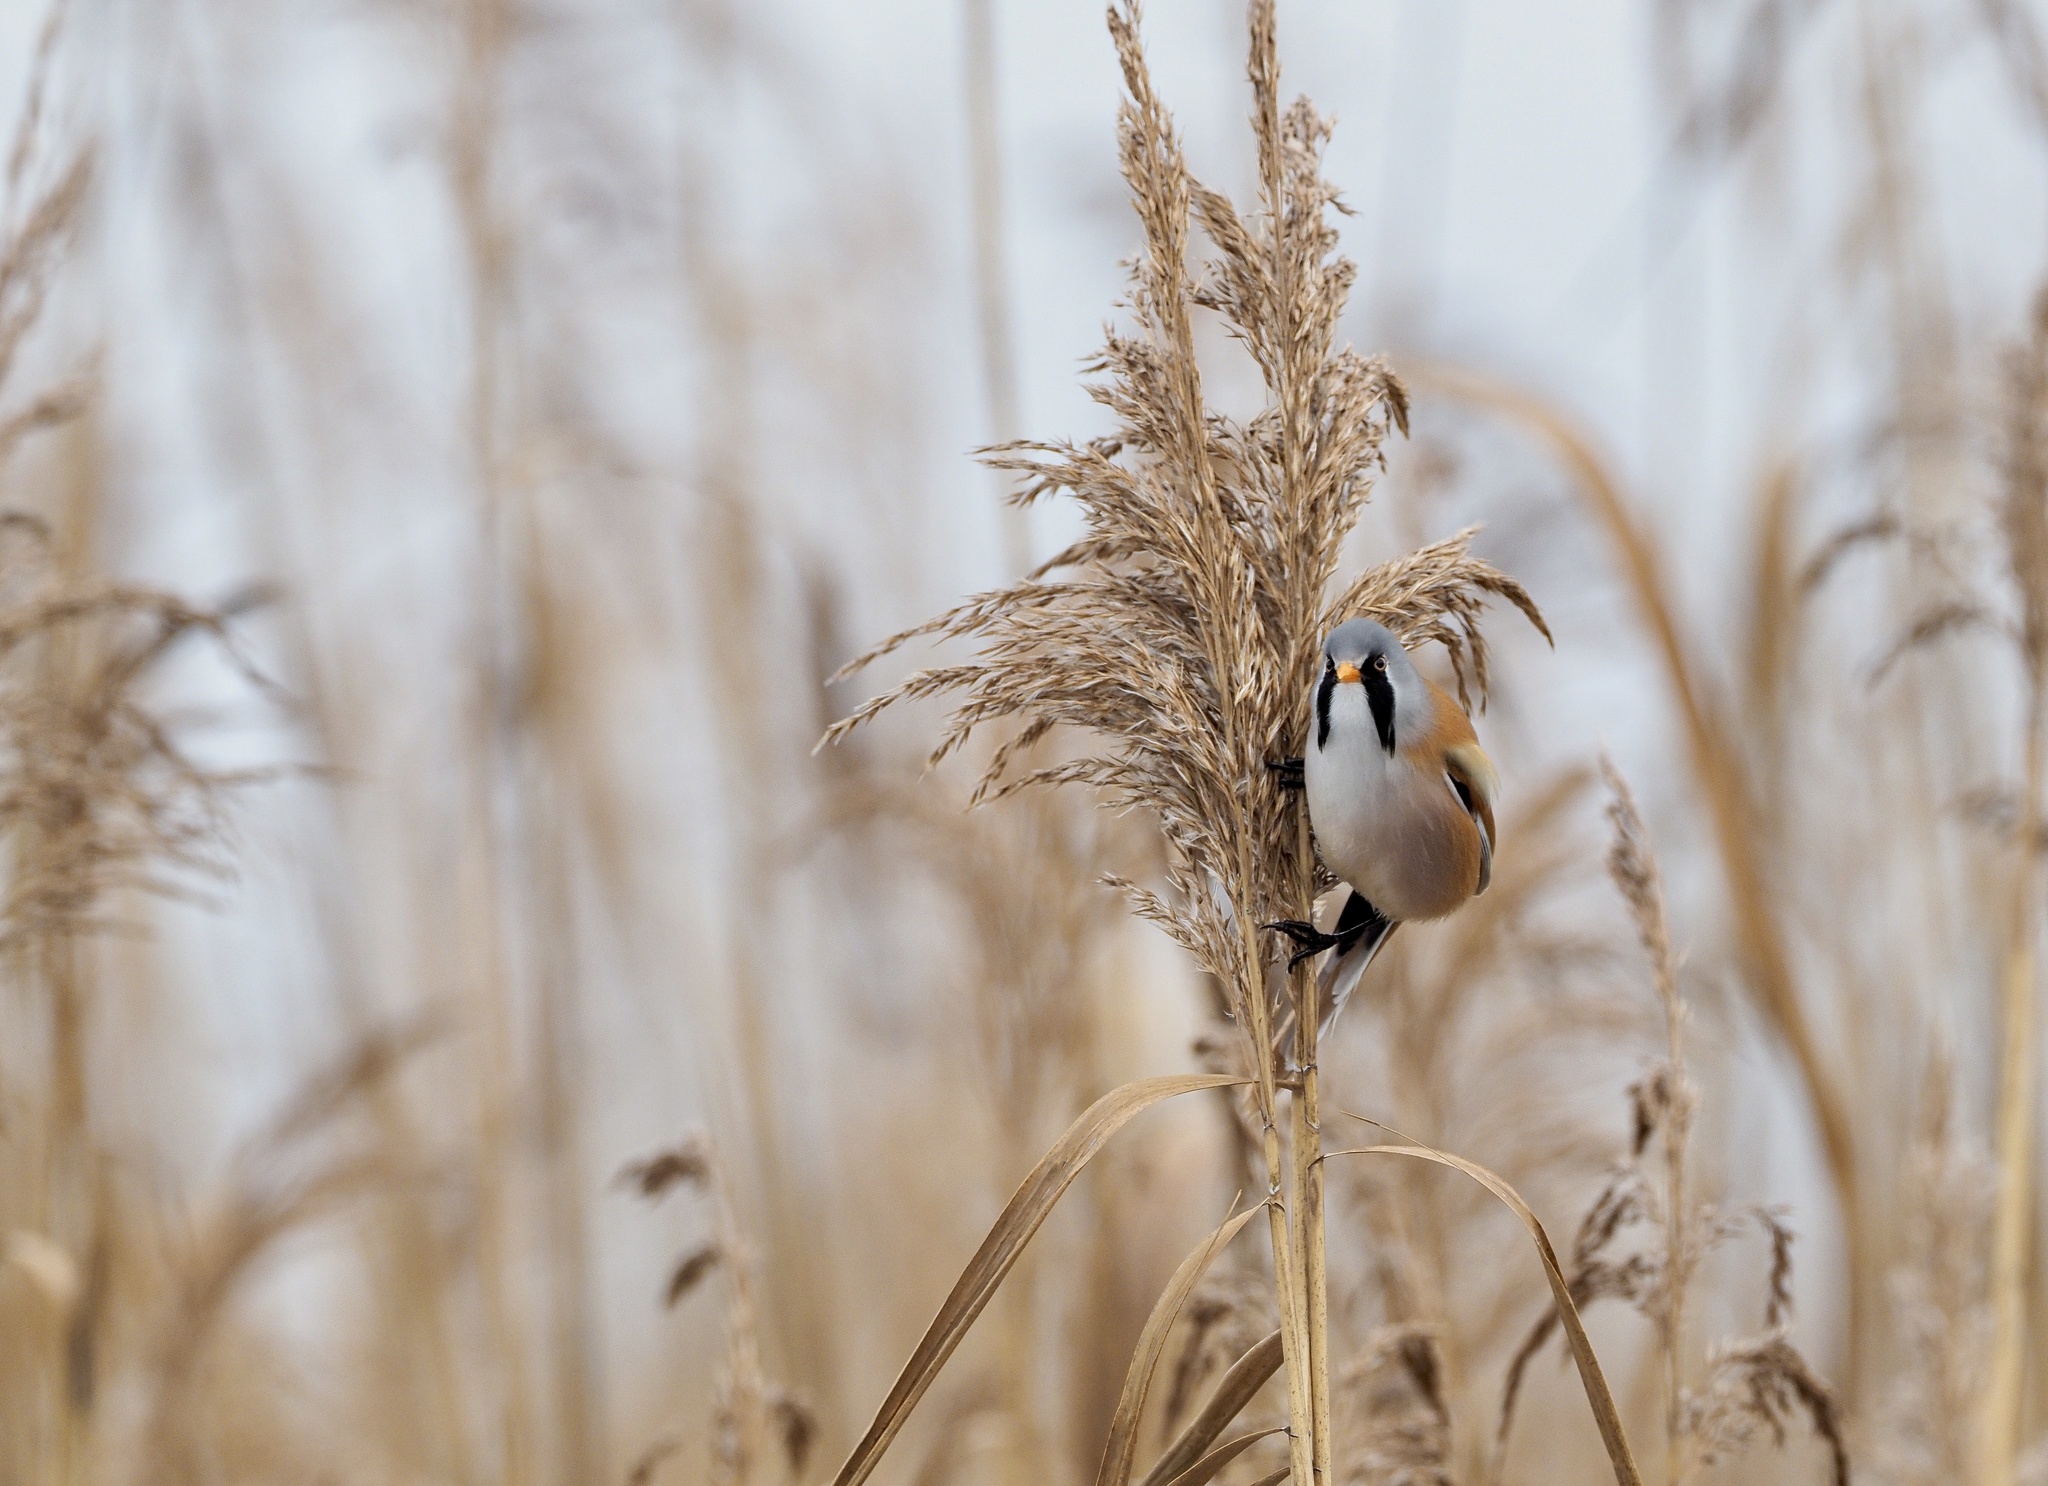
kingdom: Animalia
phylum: Chordata
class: Aves
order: Passeriformes
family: Panuridae
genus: Panurus
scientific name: Panurus biarmicus
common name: Bearded reedling
